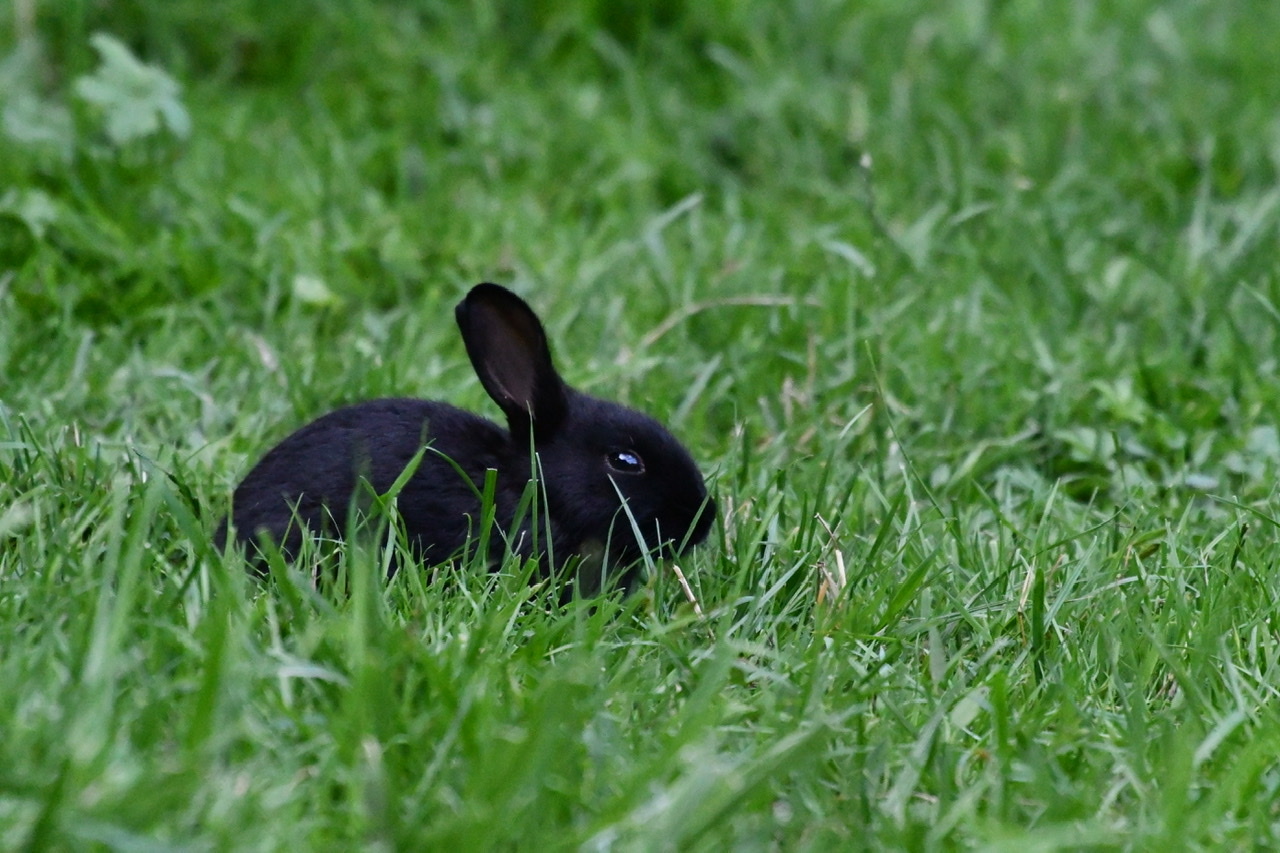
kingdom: Animalia
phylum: Chordata
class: Mammalia
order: Lagomorpha
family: Leporidae
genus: Oryctolagus
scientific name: Oryctolagus cuniculus
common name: European rabbit
